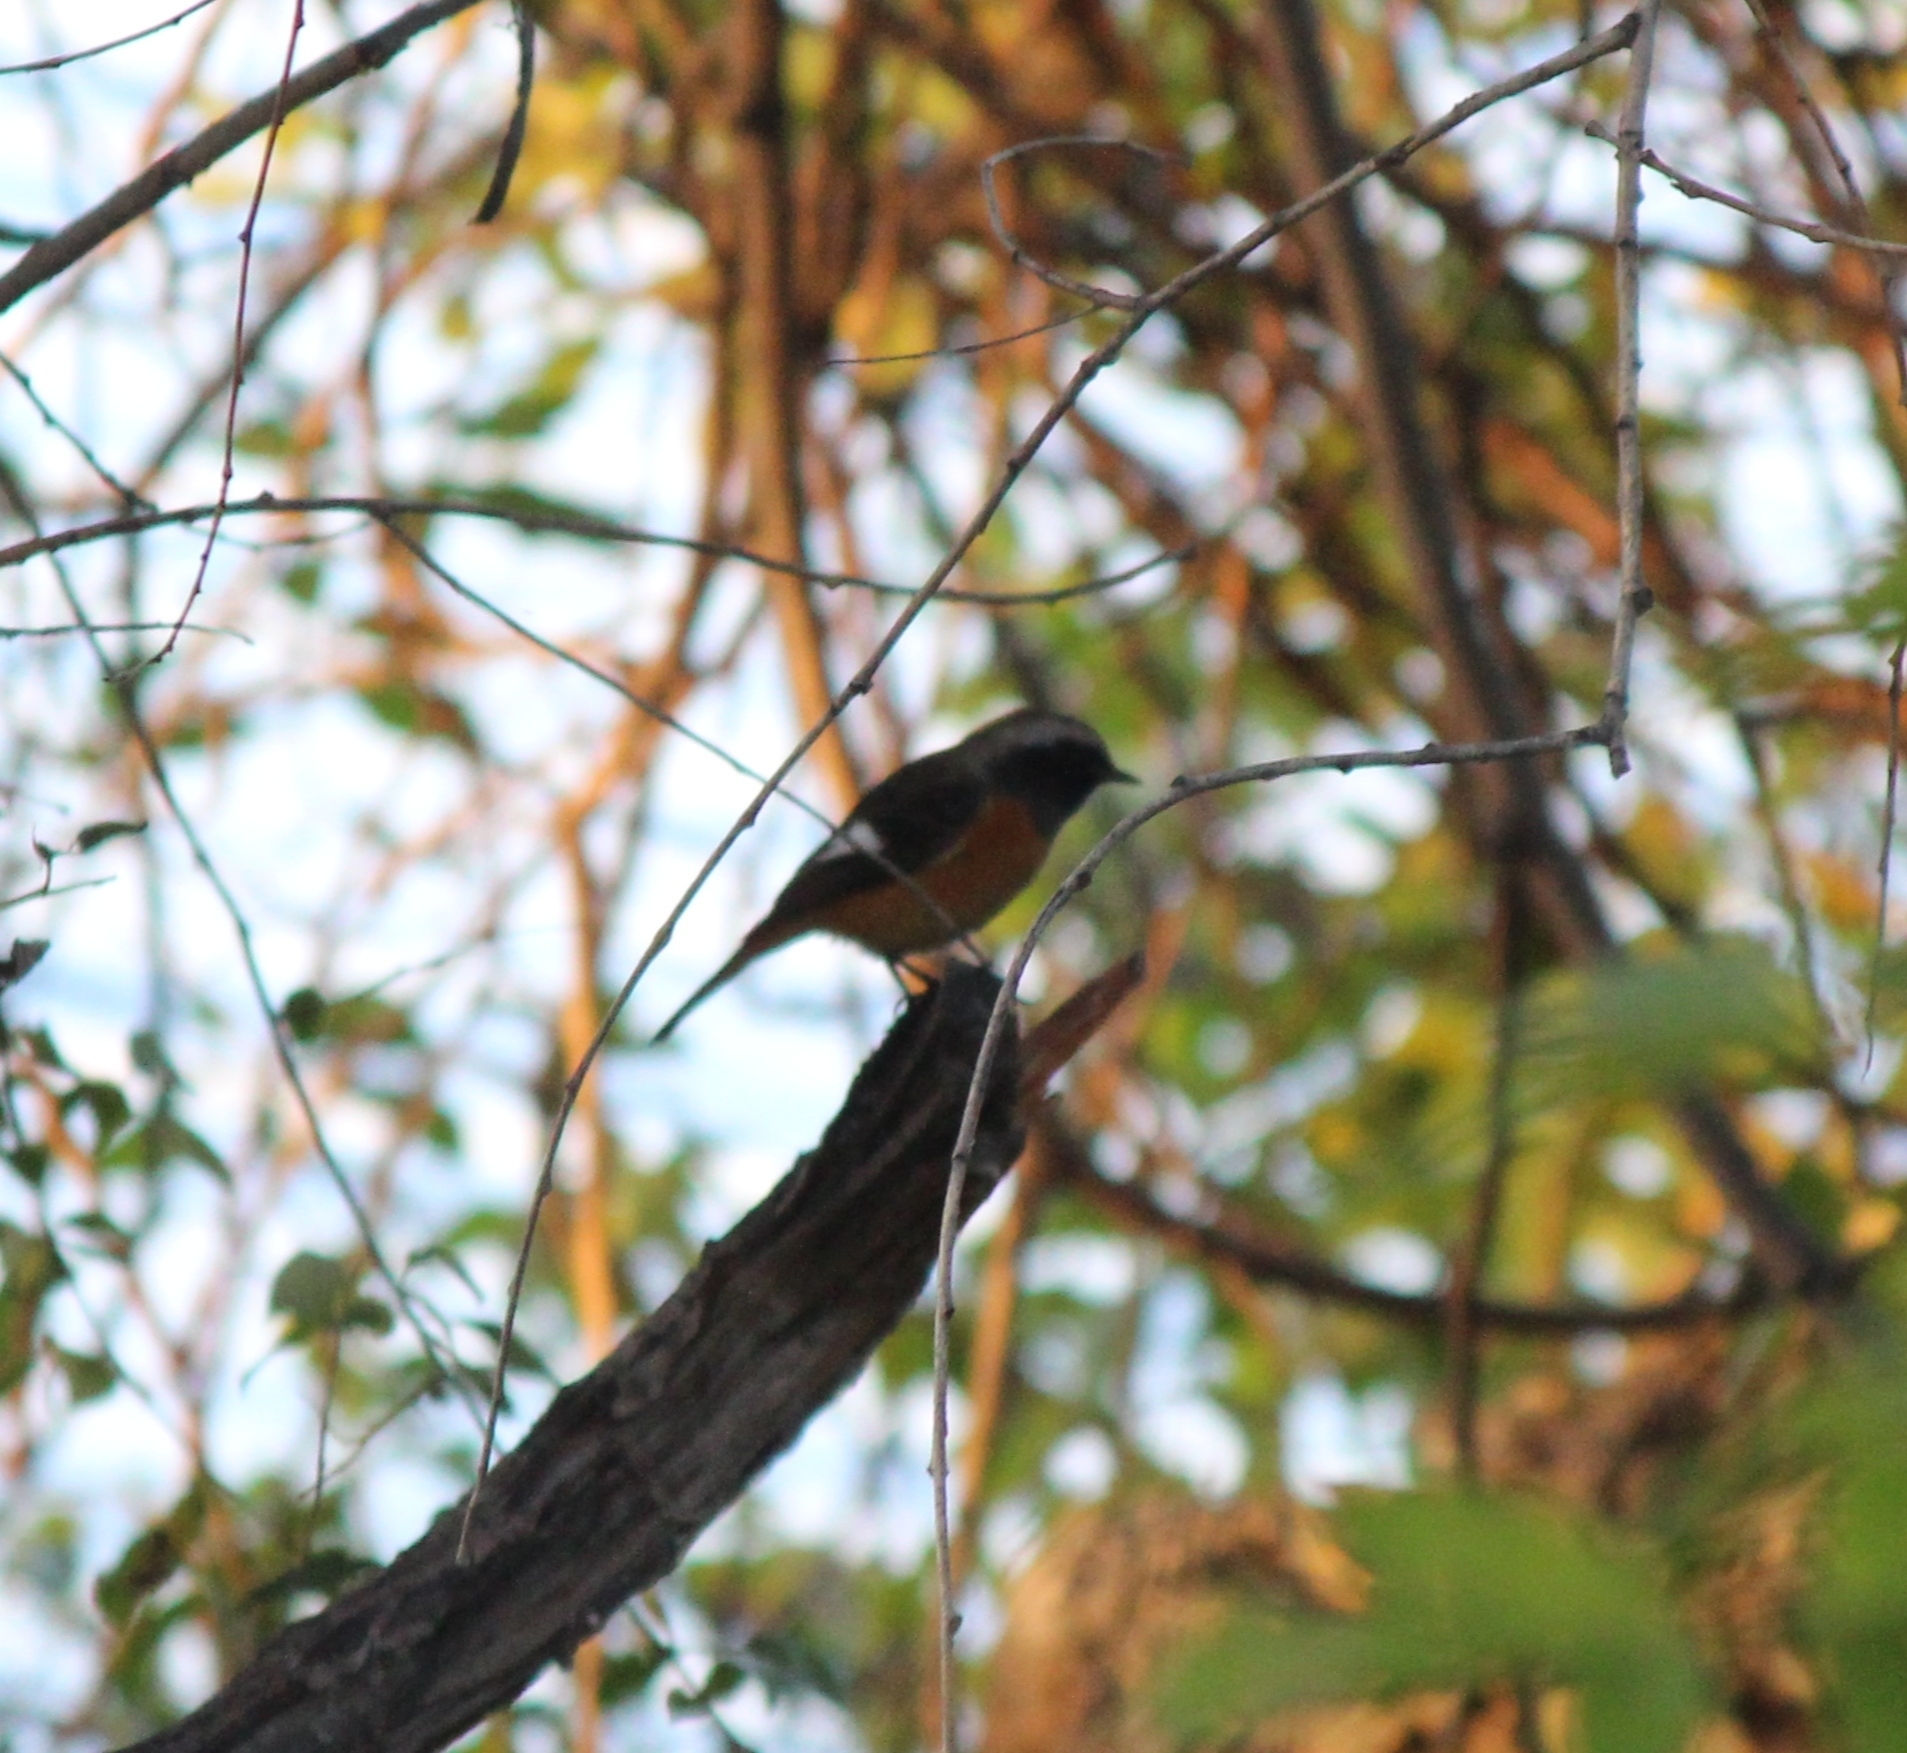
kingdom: Animalia
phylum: Chordata
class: Aves
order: Passeriformes
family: Muscicapidae
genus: Phoenicurus
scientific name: Phoenicurus auroreus
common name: Daurian redstart
